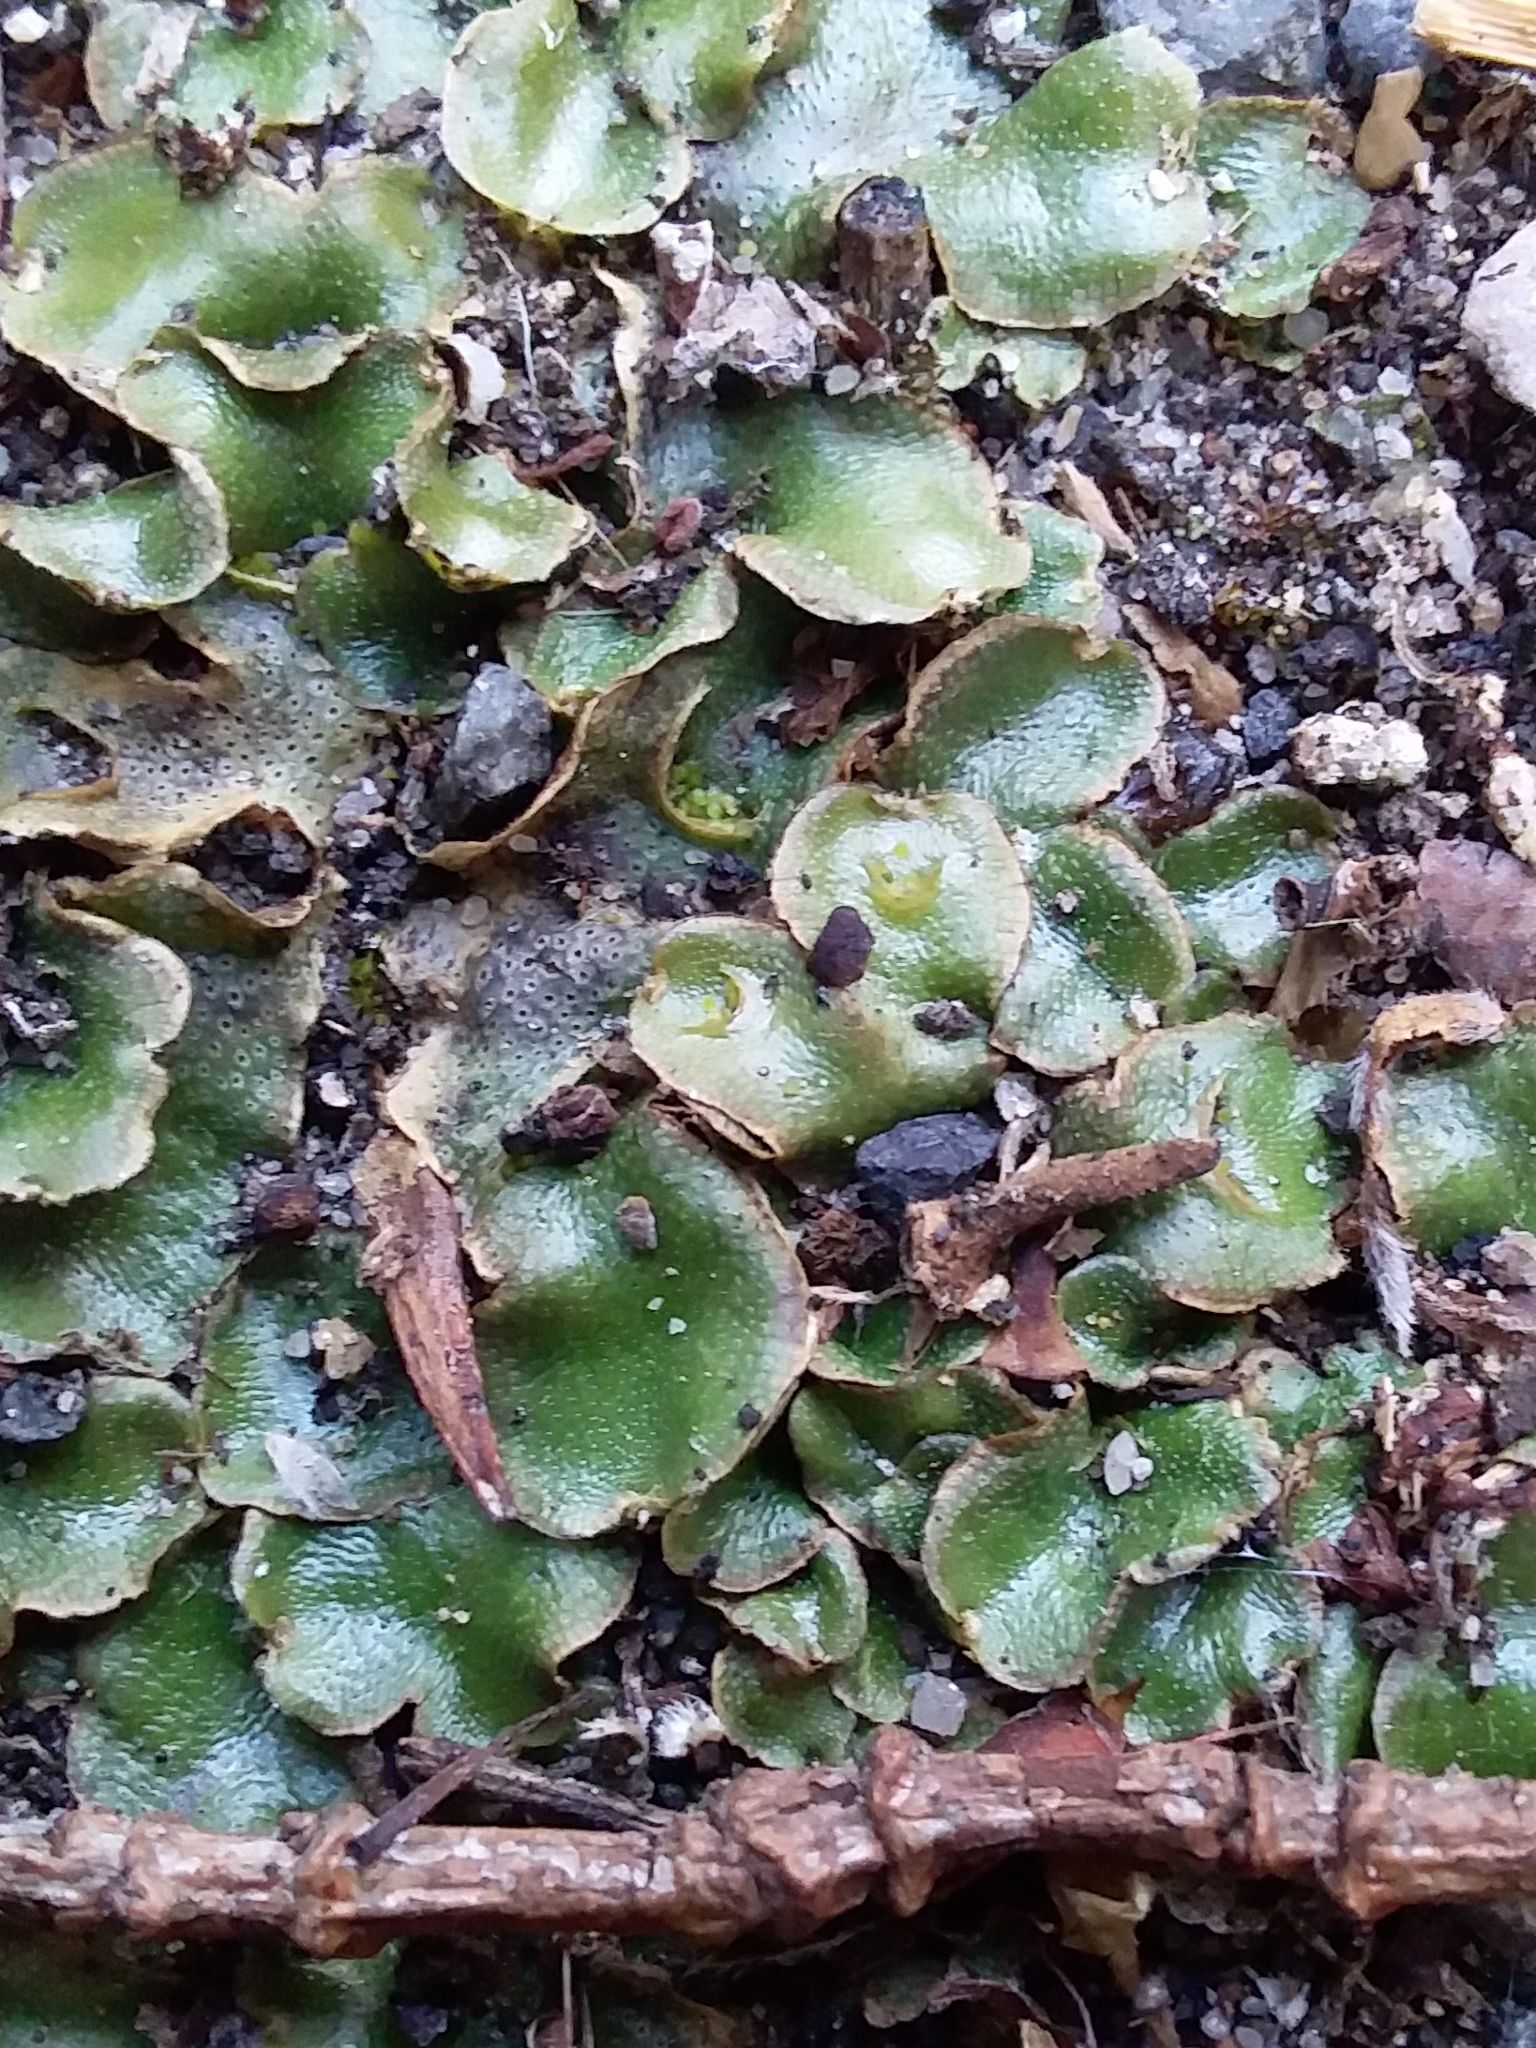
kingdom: Plantae
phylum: Marchantiophyta
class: Marchantiopsida
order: Lunulariales
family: Lunulariaceae
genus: Lunularia
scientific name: Lunularia cruciata
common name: Crescent-cup liverwort
